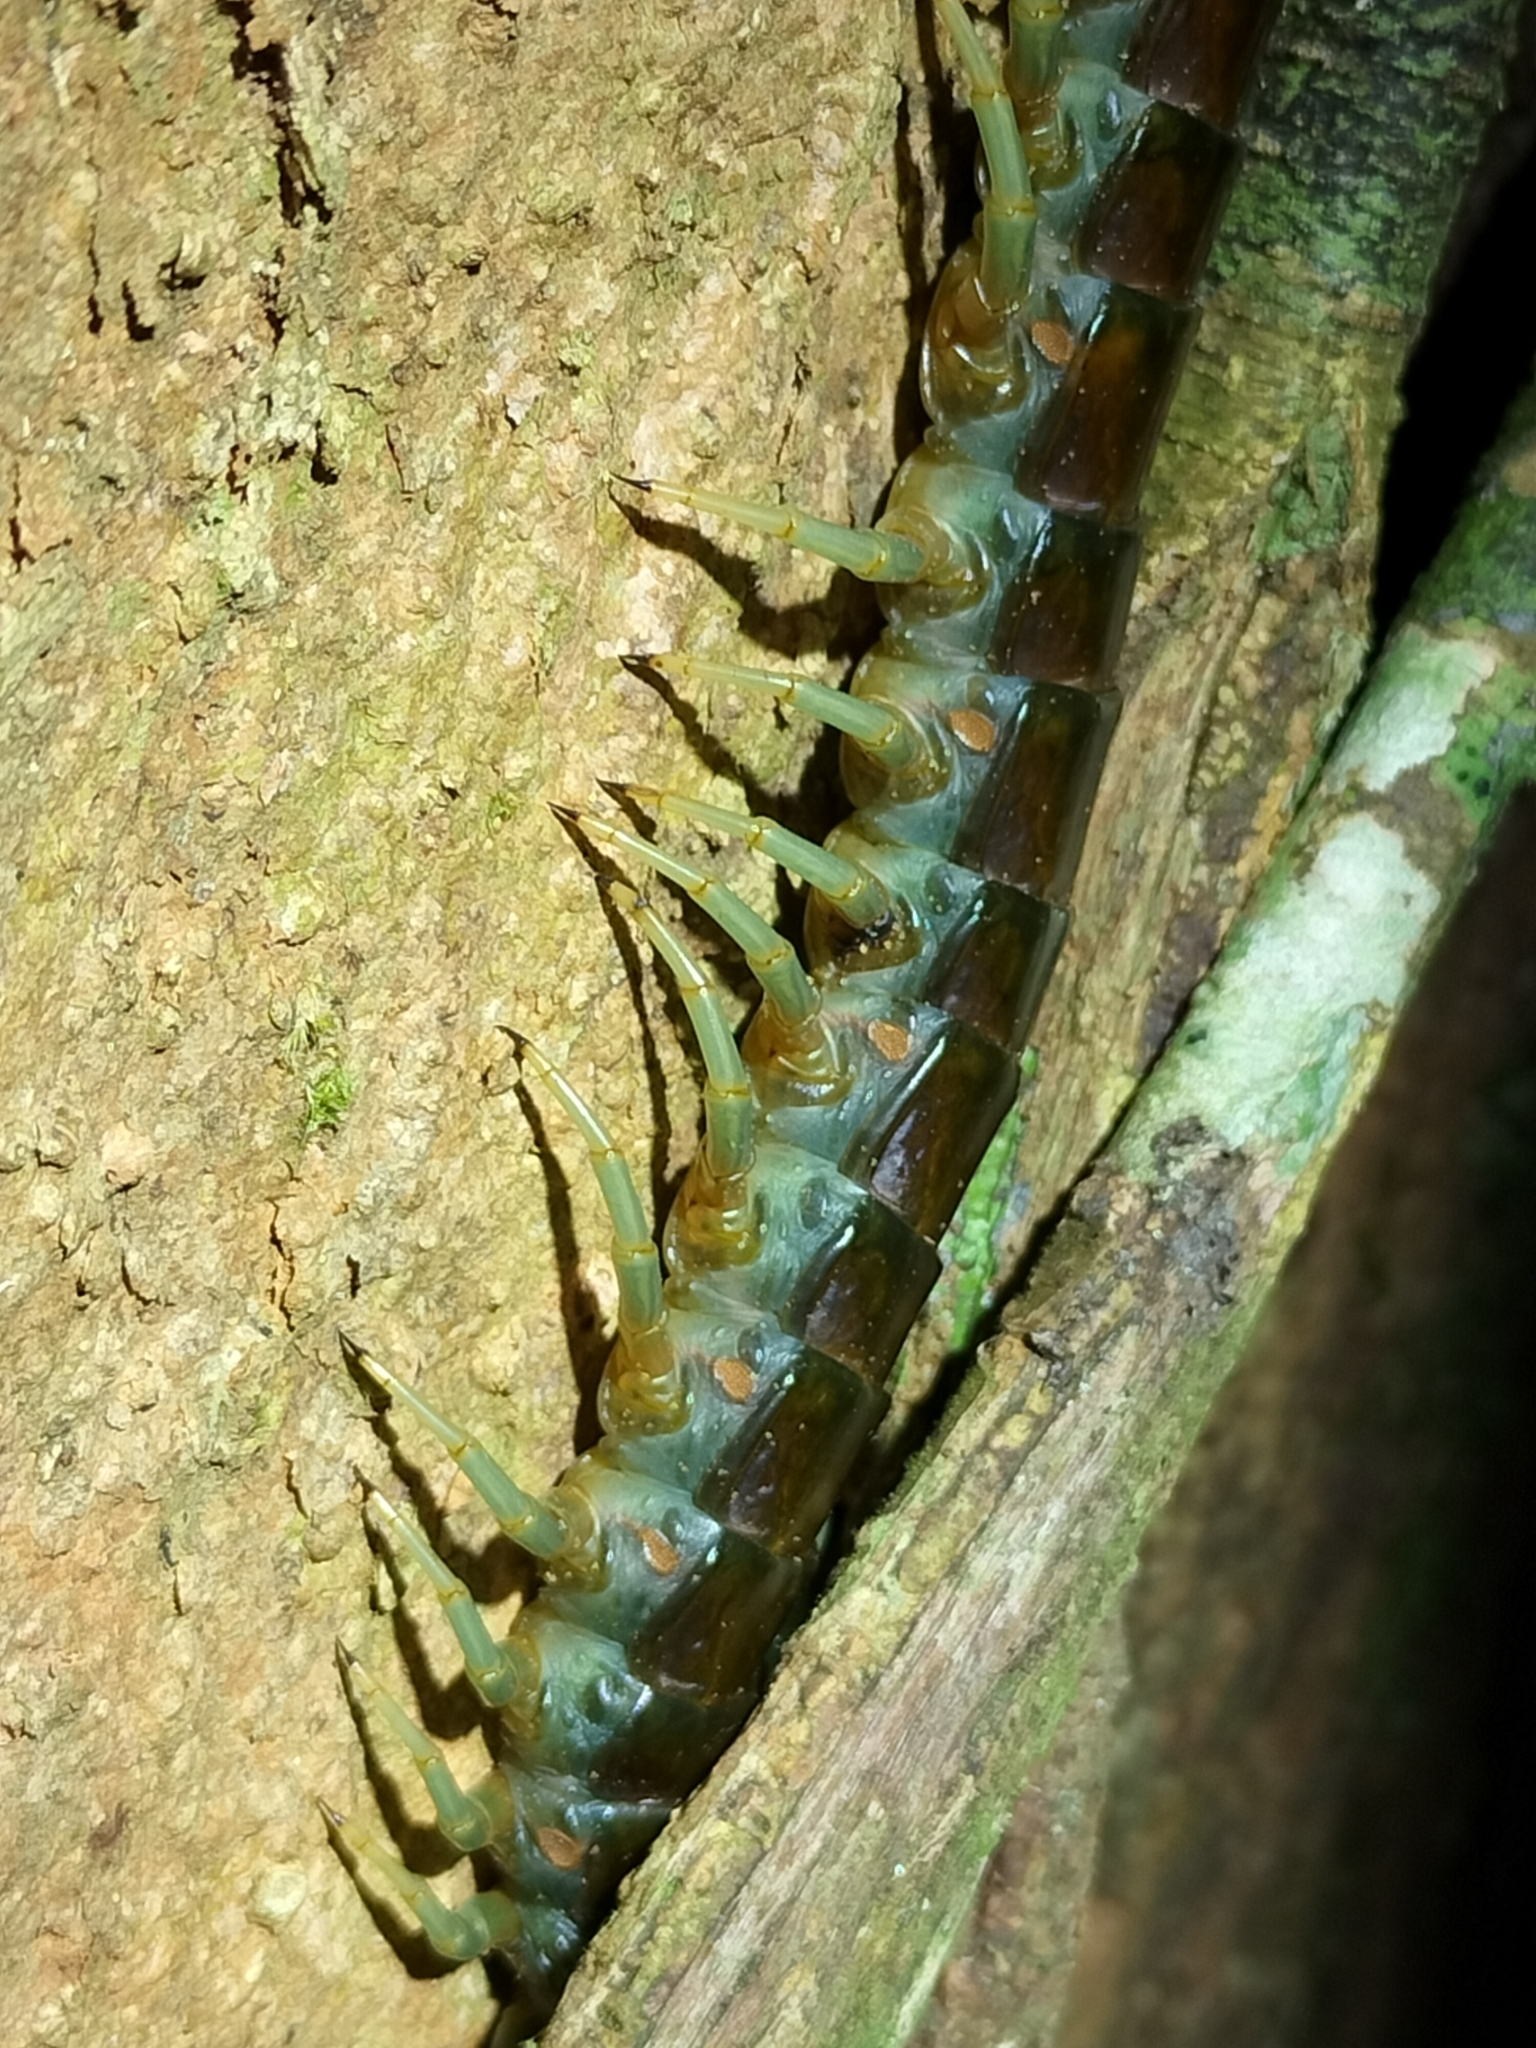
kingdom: Animalia
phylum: Arthropoda
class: Chilopoda
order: Scolopendromorpha
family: Scolopendridae
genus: Ethmostigmus
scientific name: Ethmostigmus rubripes
